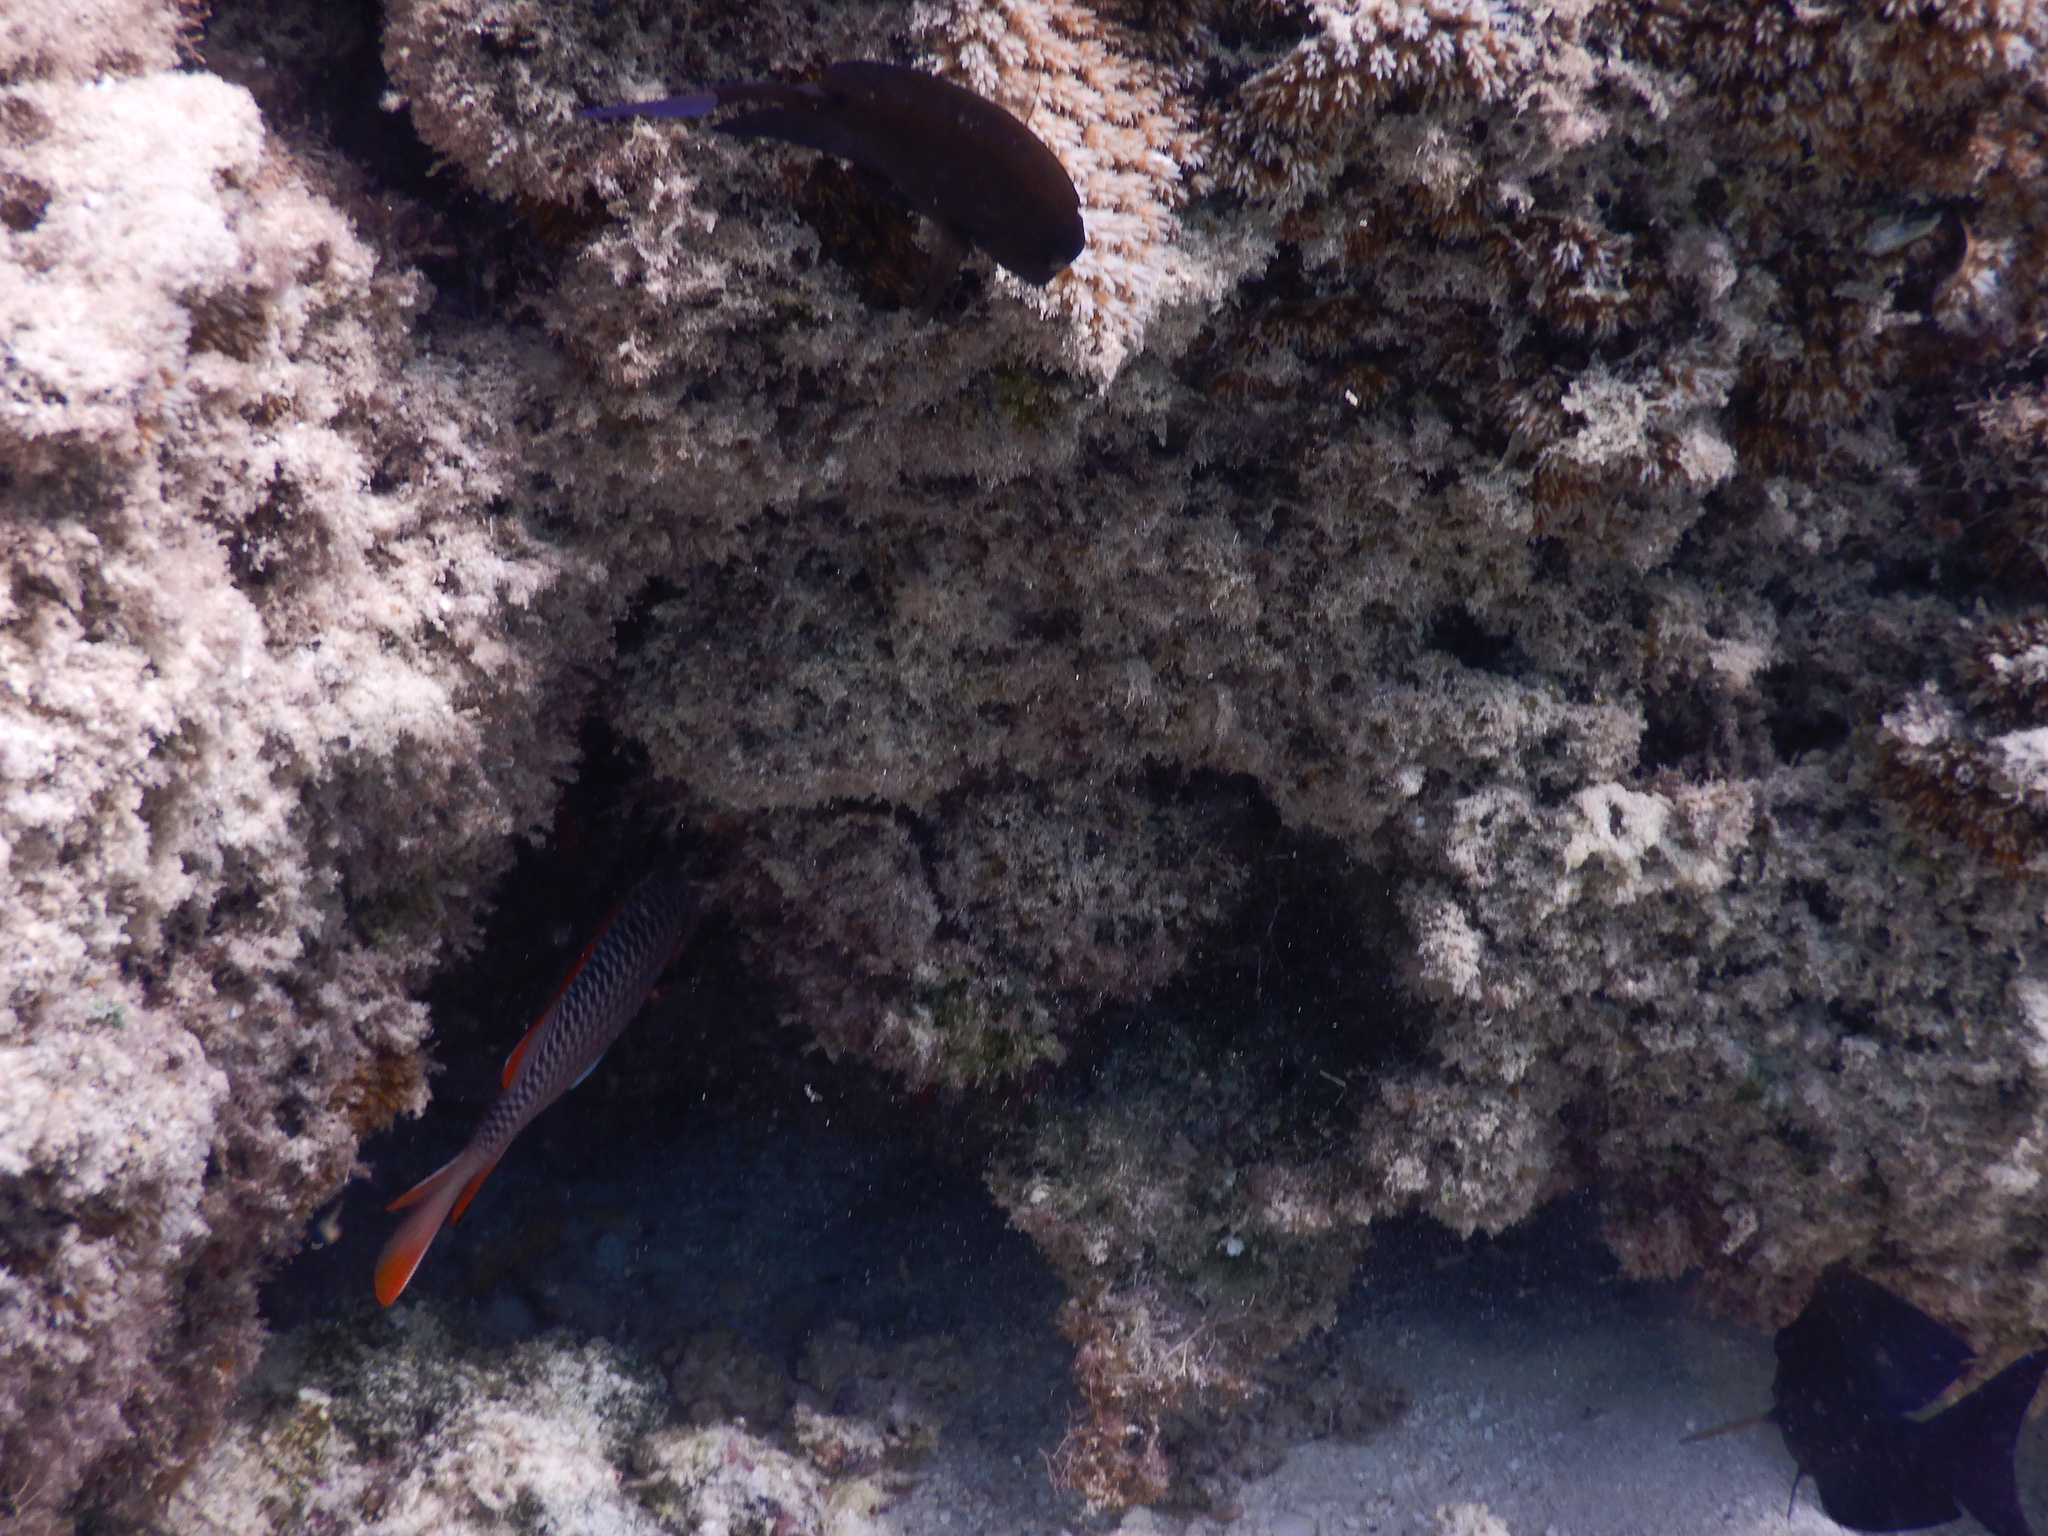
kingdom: Animalia
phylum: Chordata
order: Beryciformes
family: Holocentridae
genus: Myripristis
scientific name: Myripristis violacea
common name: Lattice soldierfish
